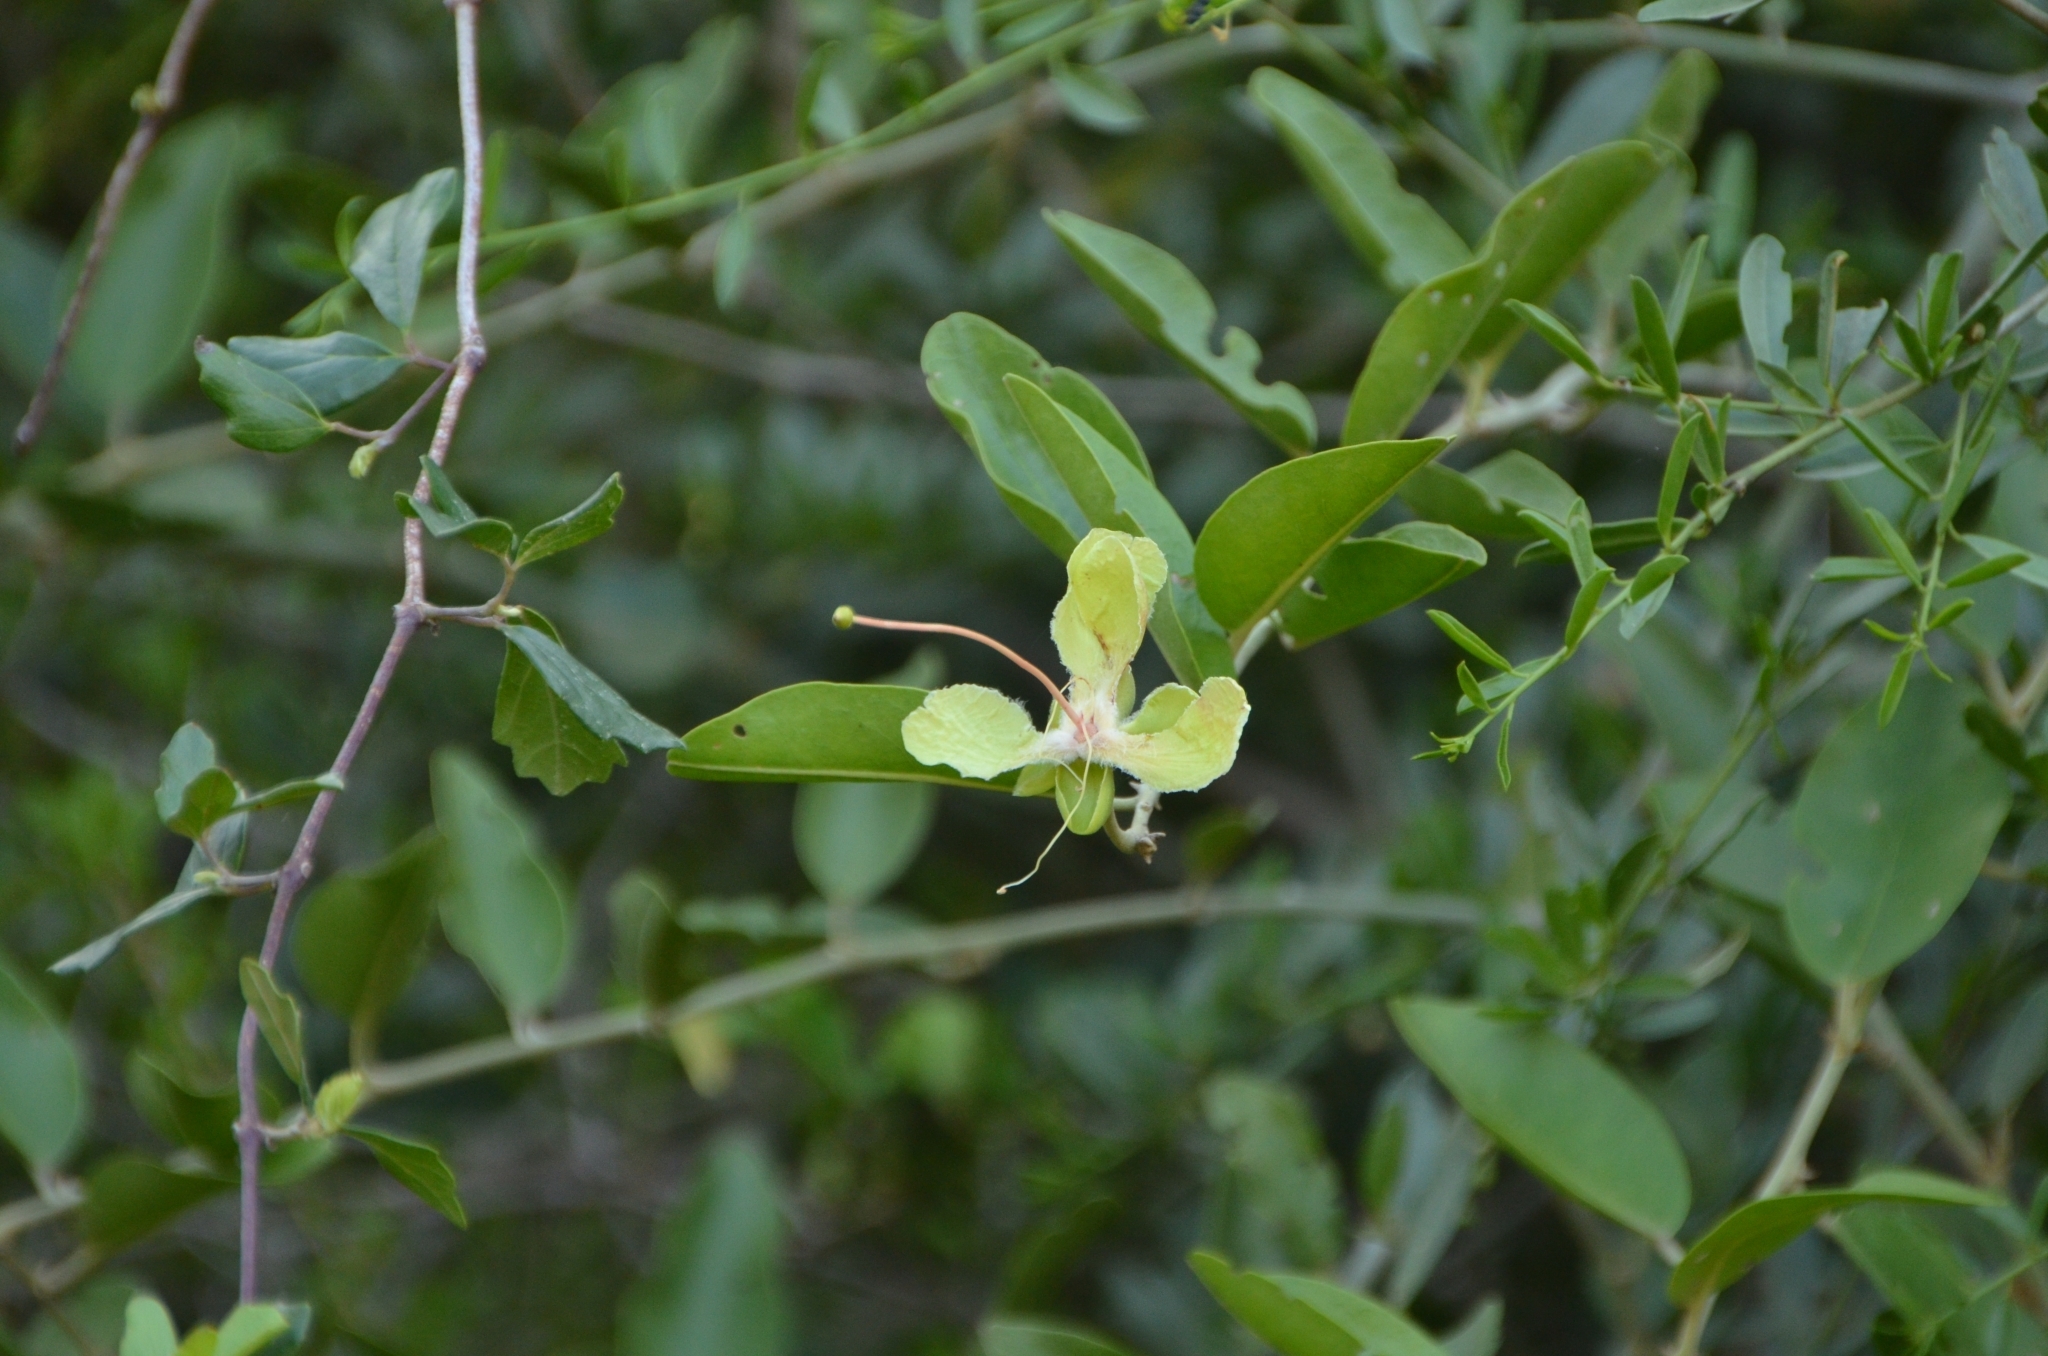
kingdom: Plantae
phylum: Tracheophyta
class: Magnoliopsida
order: Brassicales
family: Capparaceae
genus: Capparis
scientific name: Capparis sepiaria
